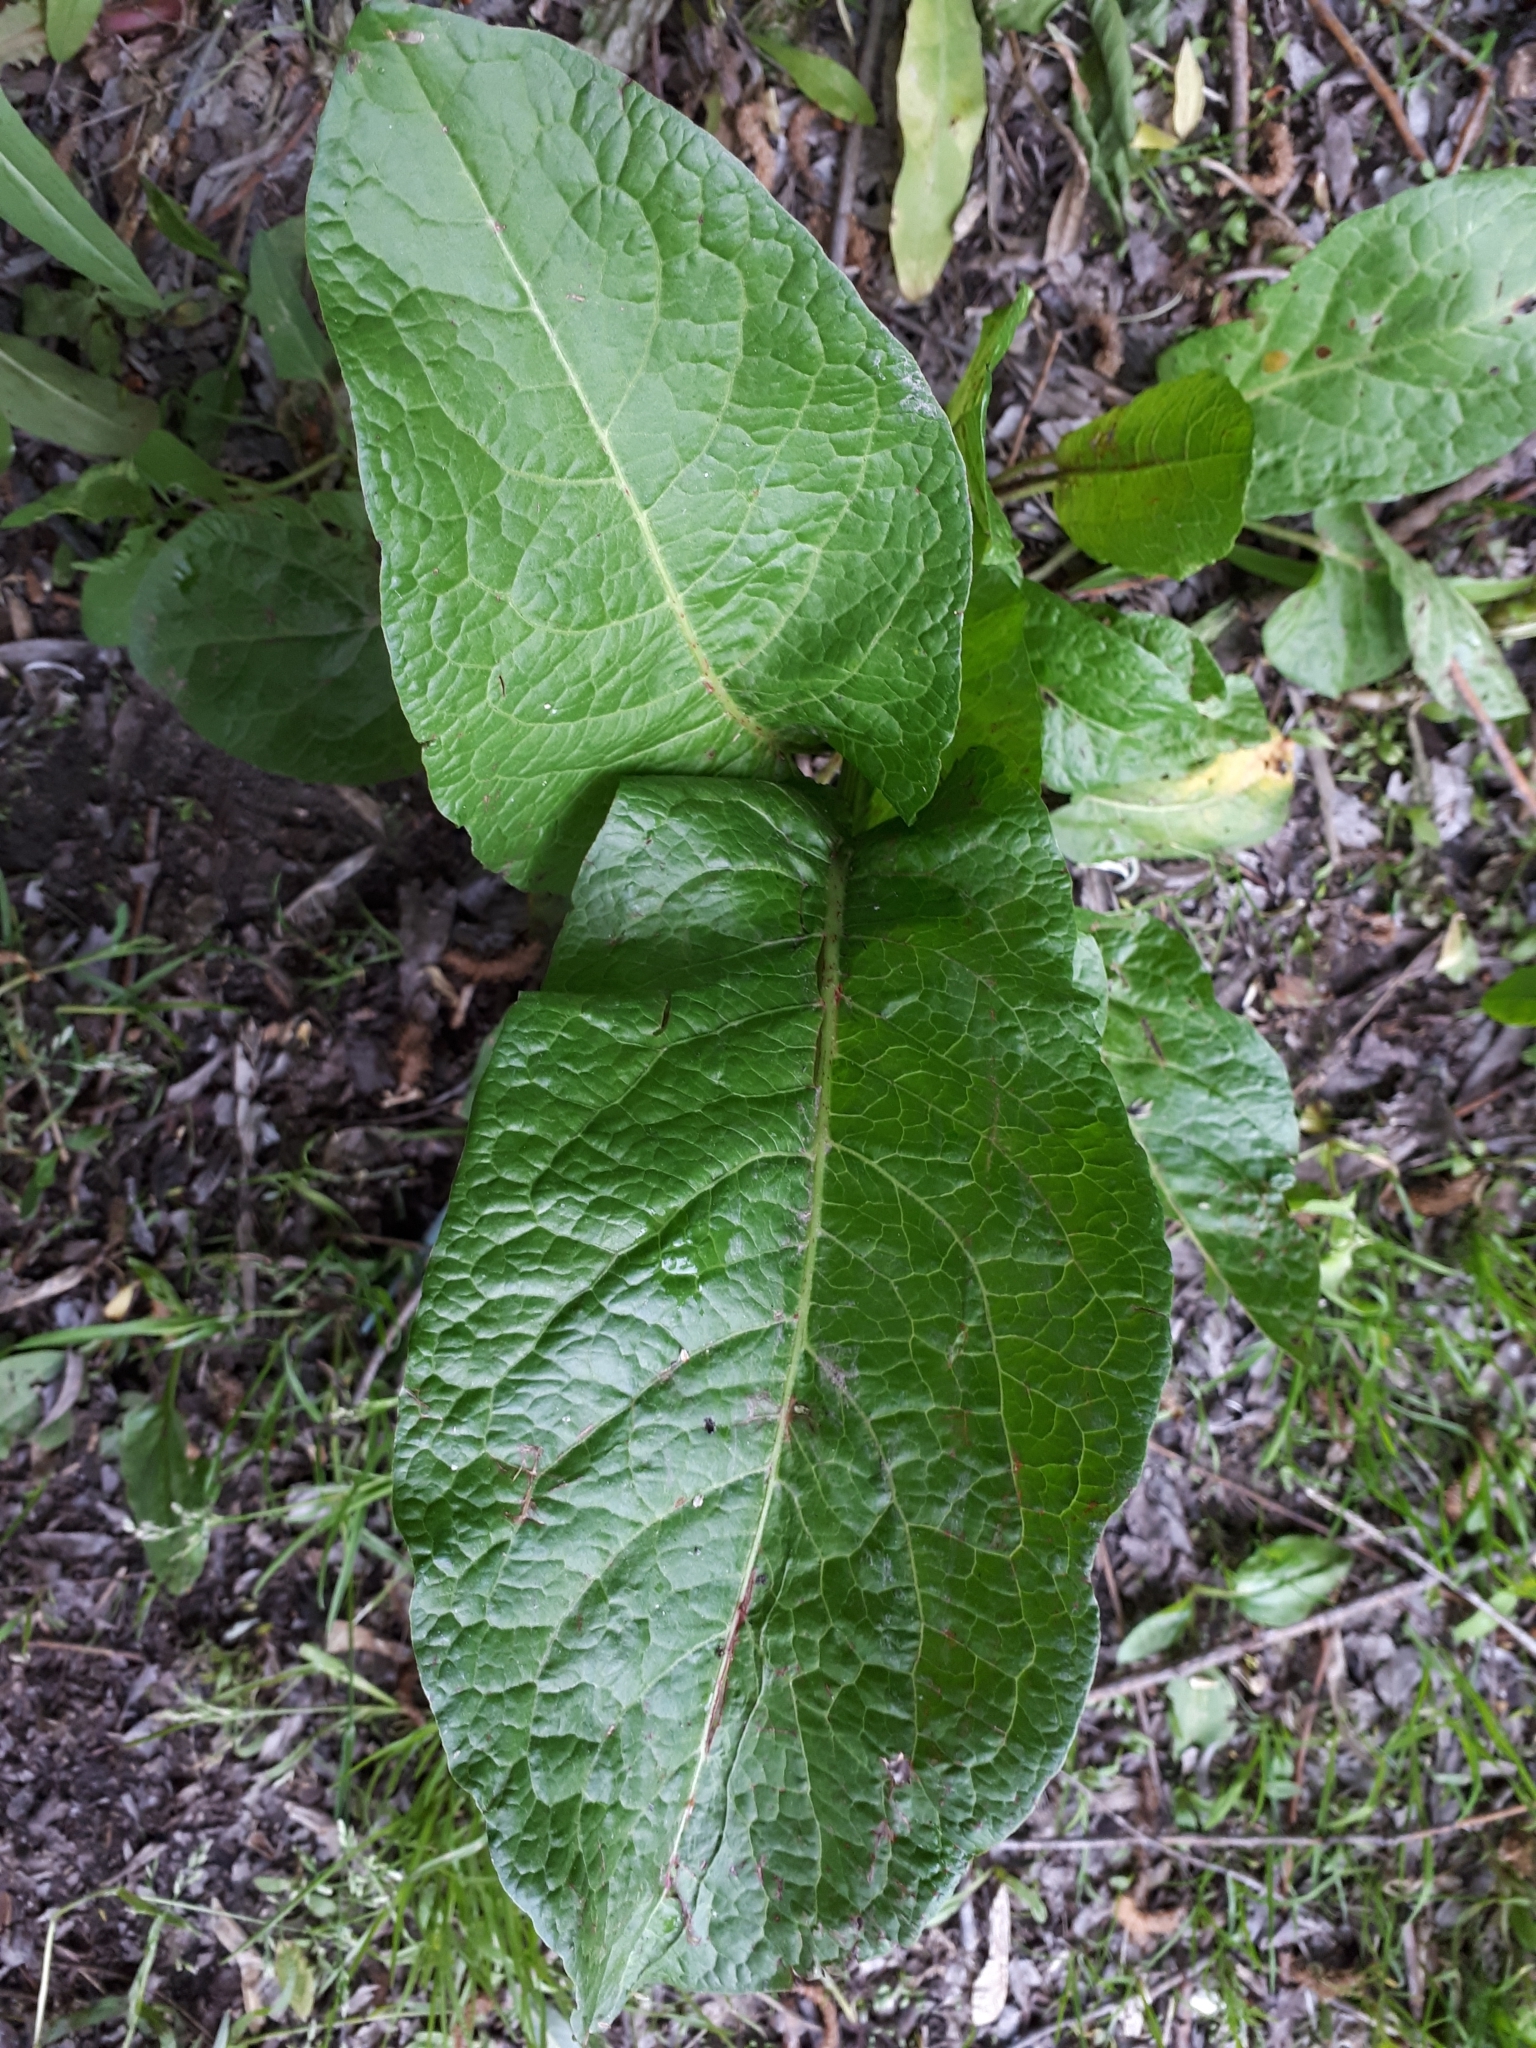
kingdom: Plantae
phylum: Tracheophyta
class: Magnoliopsida
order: Caryophyllales
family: Polygonaceae
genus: Rumex
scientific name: Rumex obtusifolius
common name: Bitter dock
